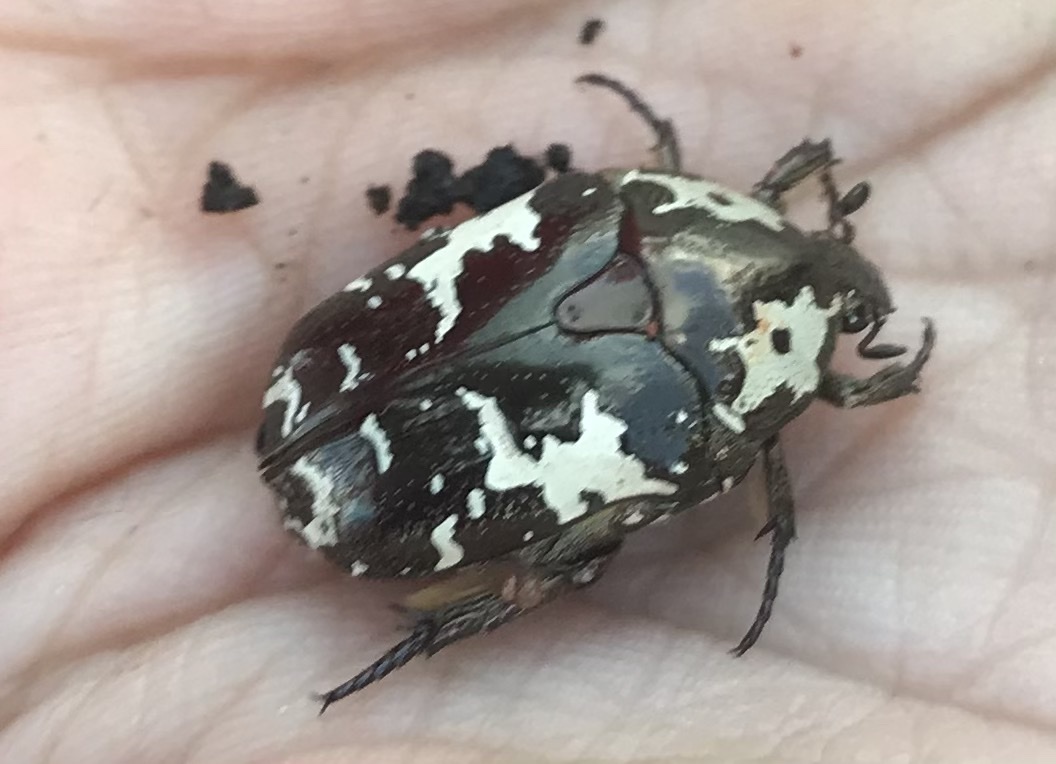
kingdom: Animalia
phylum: Arthropoda
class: Insecta
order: Coleoptera
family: Scarabaeidae
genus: Protaetia
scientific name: Protaetia aurichalcea
